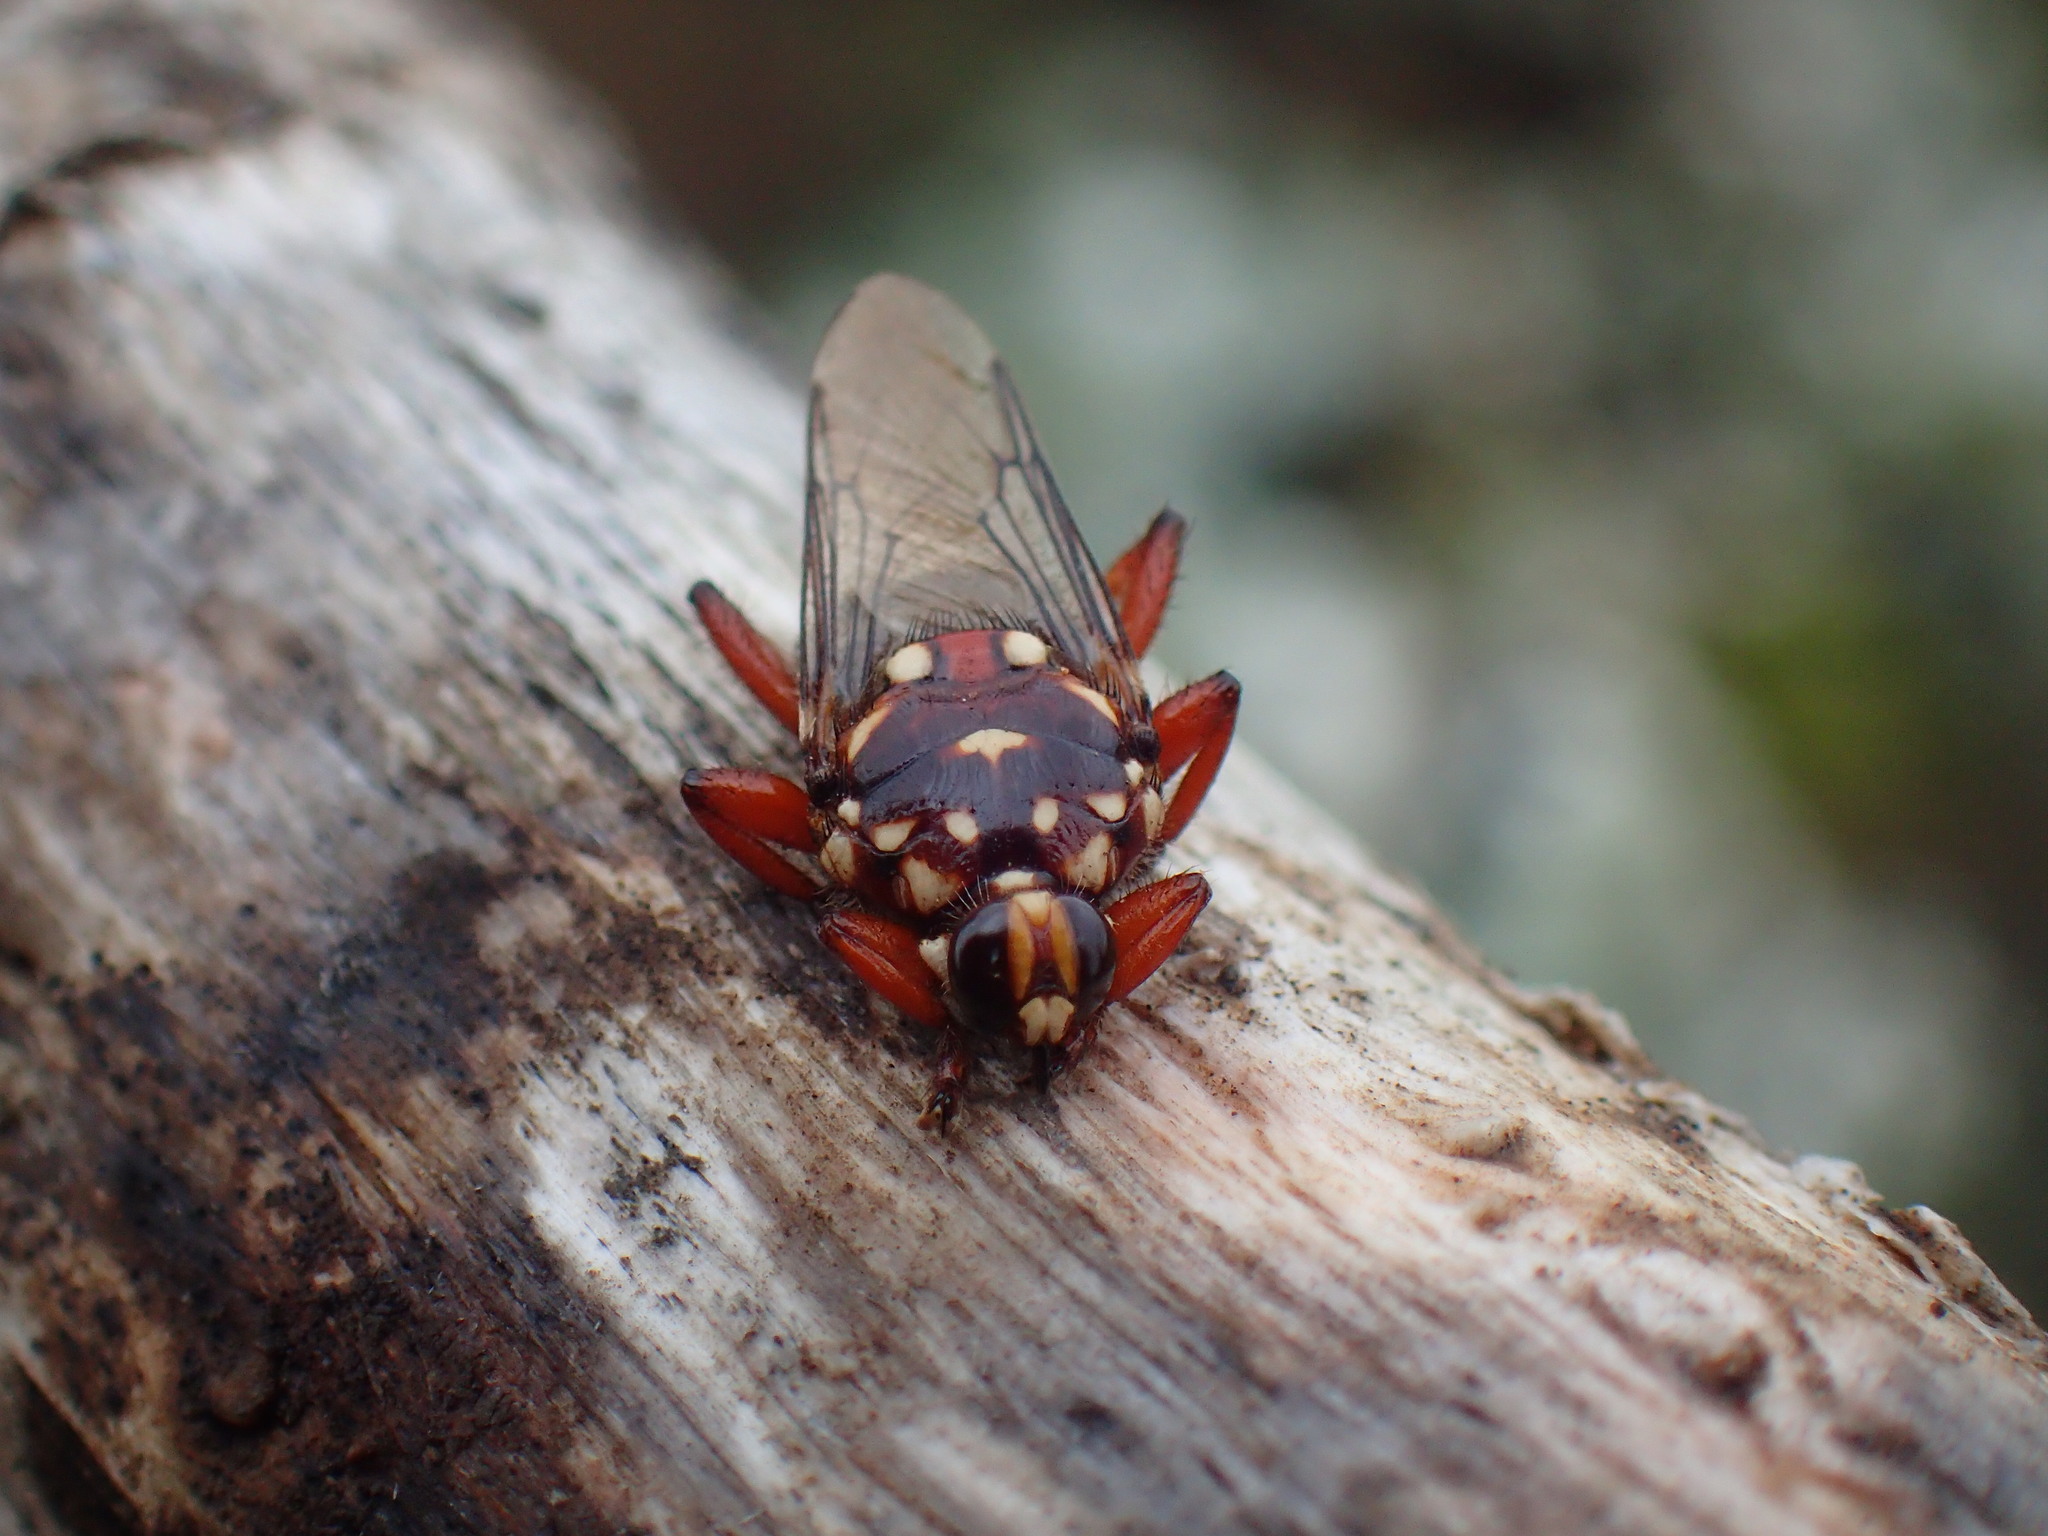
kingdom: Animalia
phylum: Arthropoda
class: Insecta
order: Diptera
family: Hippoboscidae
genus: Hippobosca
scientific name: Hippobosca rufipes
